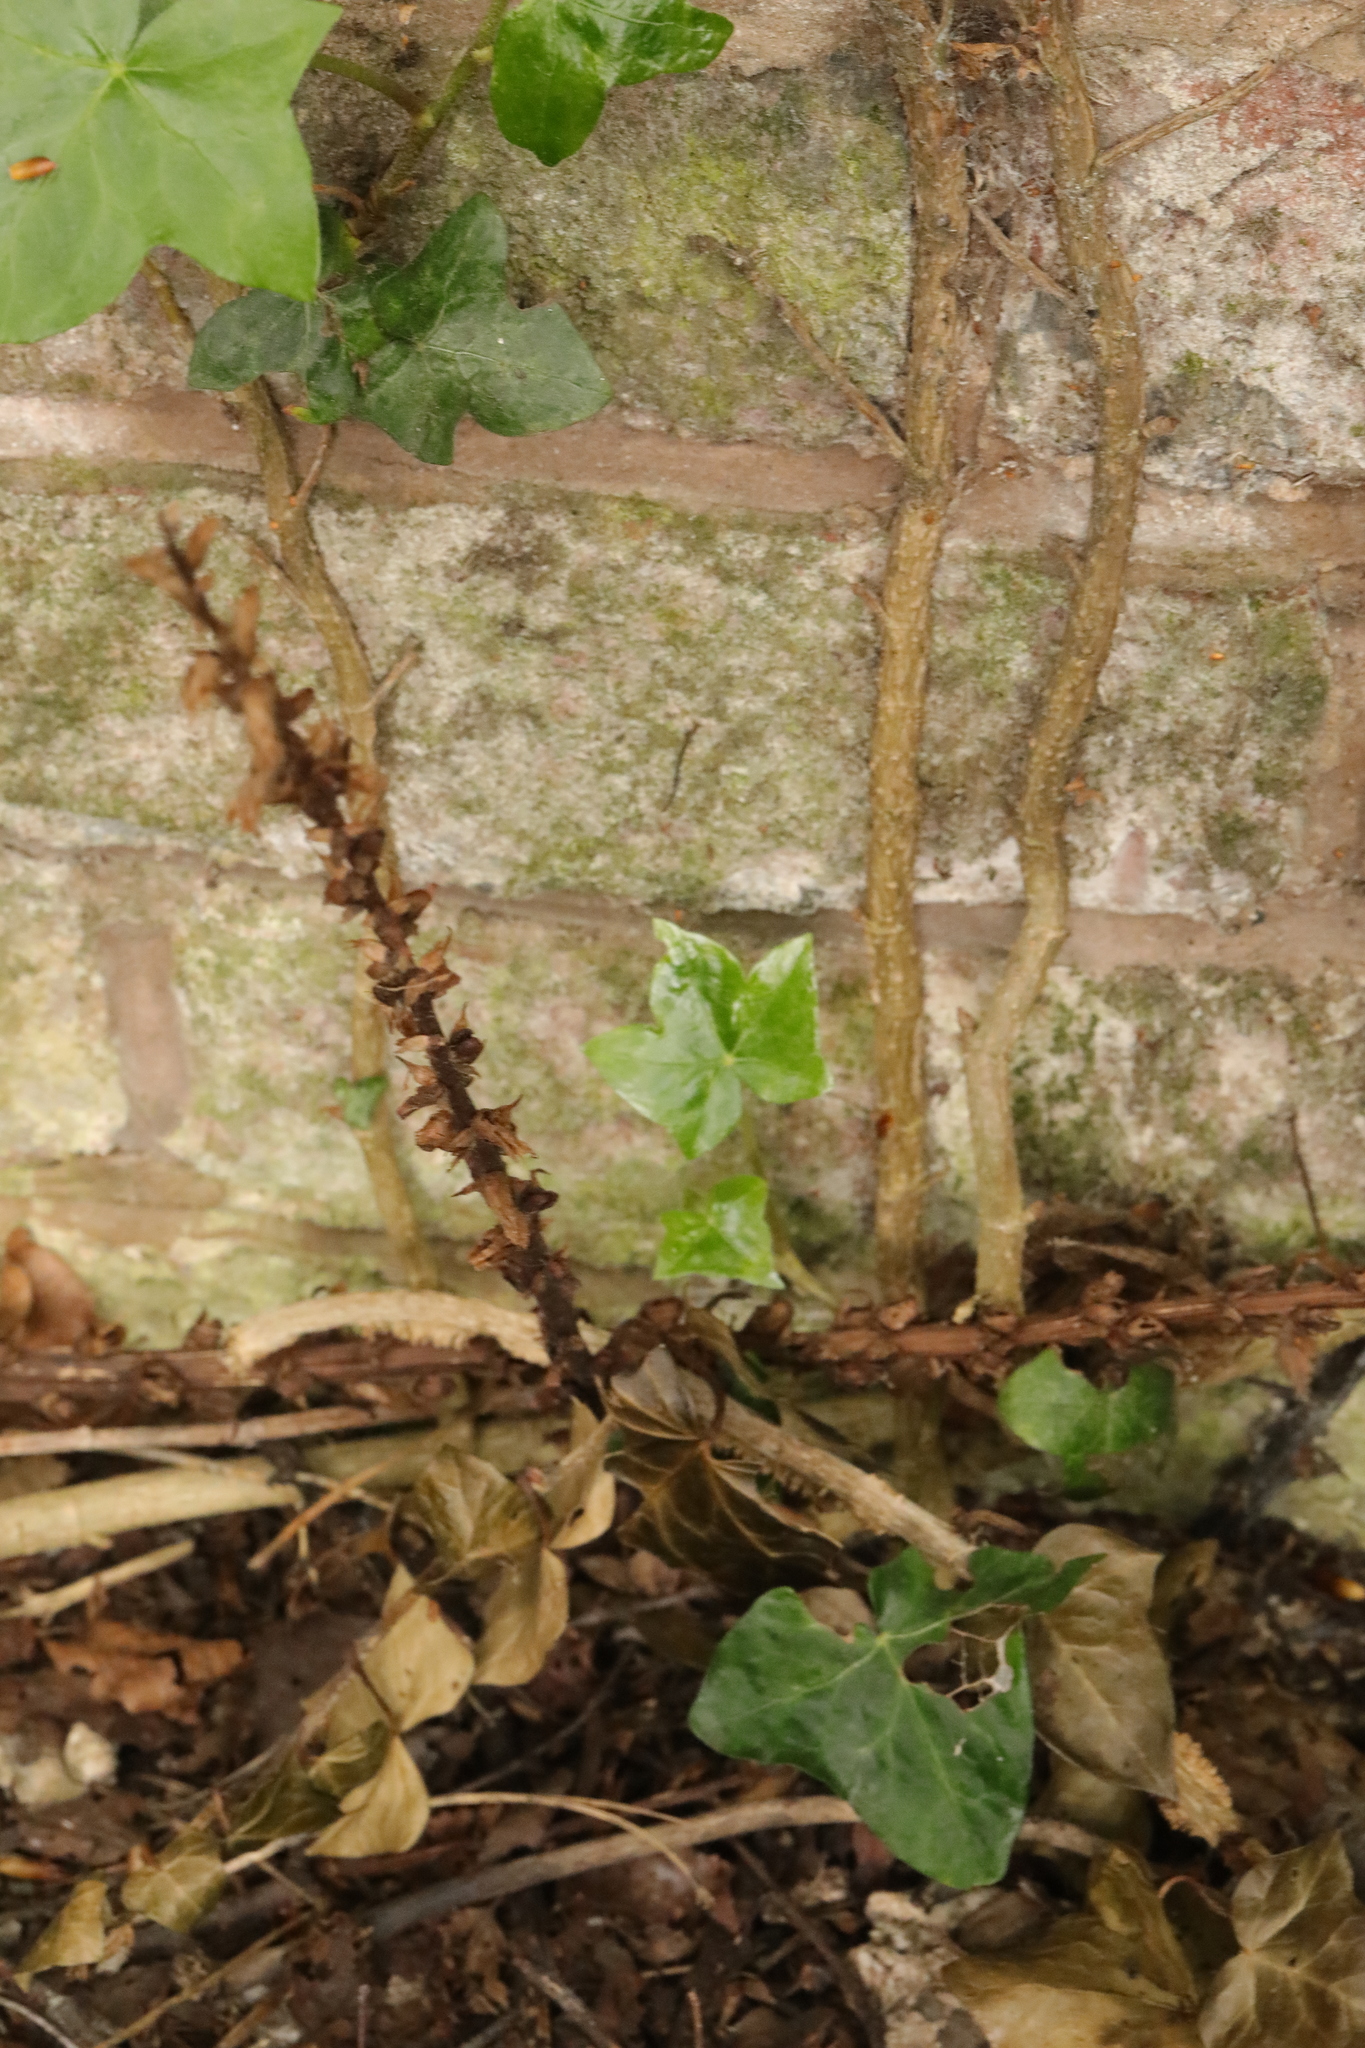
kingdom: Plantae
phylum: Tracheophyta
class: Magnoliopsida
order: Lamiales
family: Orobanchaceae
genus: Orobanche
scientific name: Orobanche hederae
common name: Ivy broomrape
